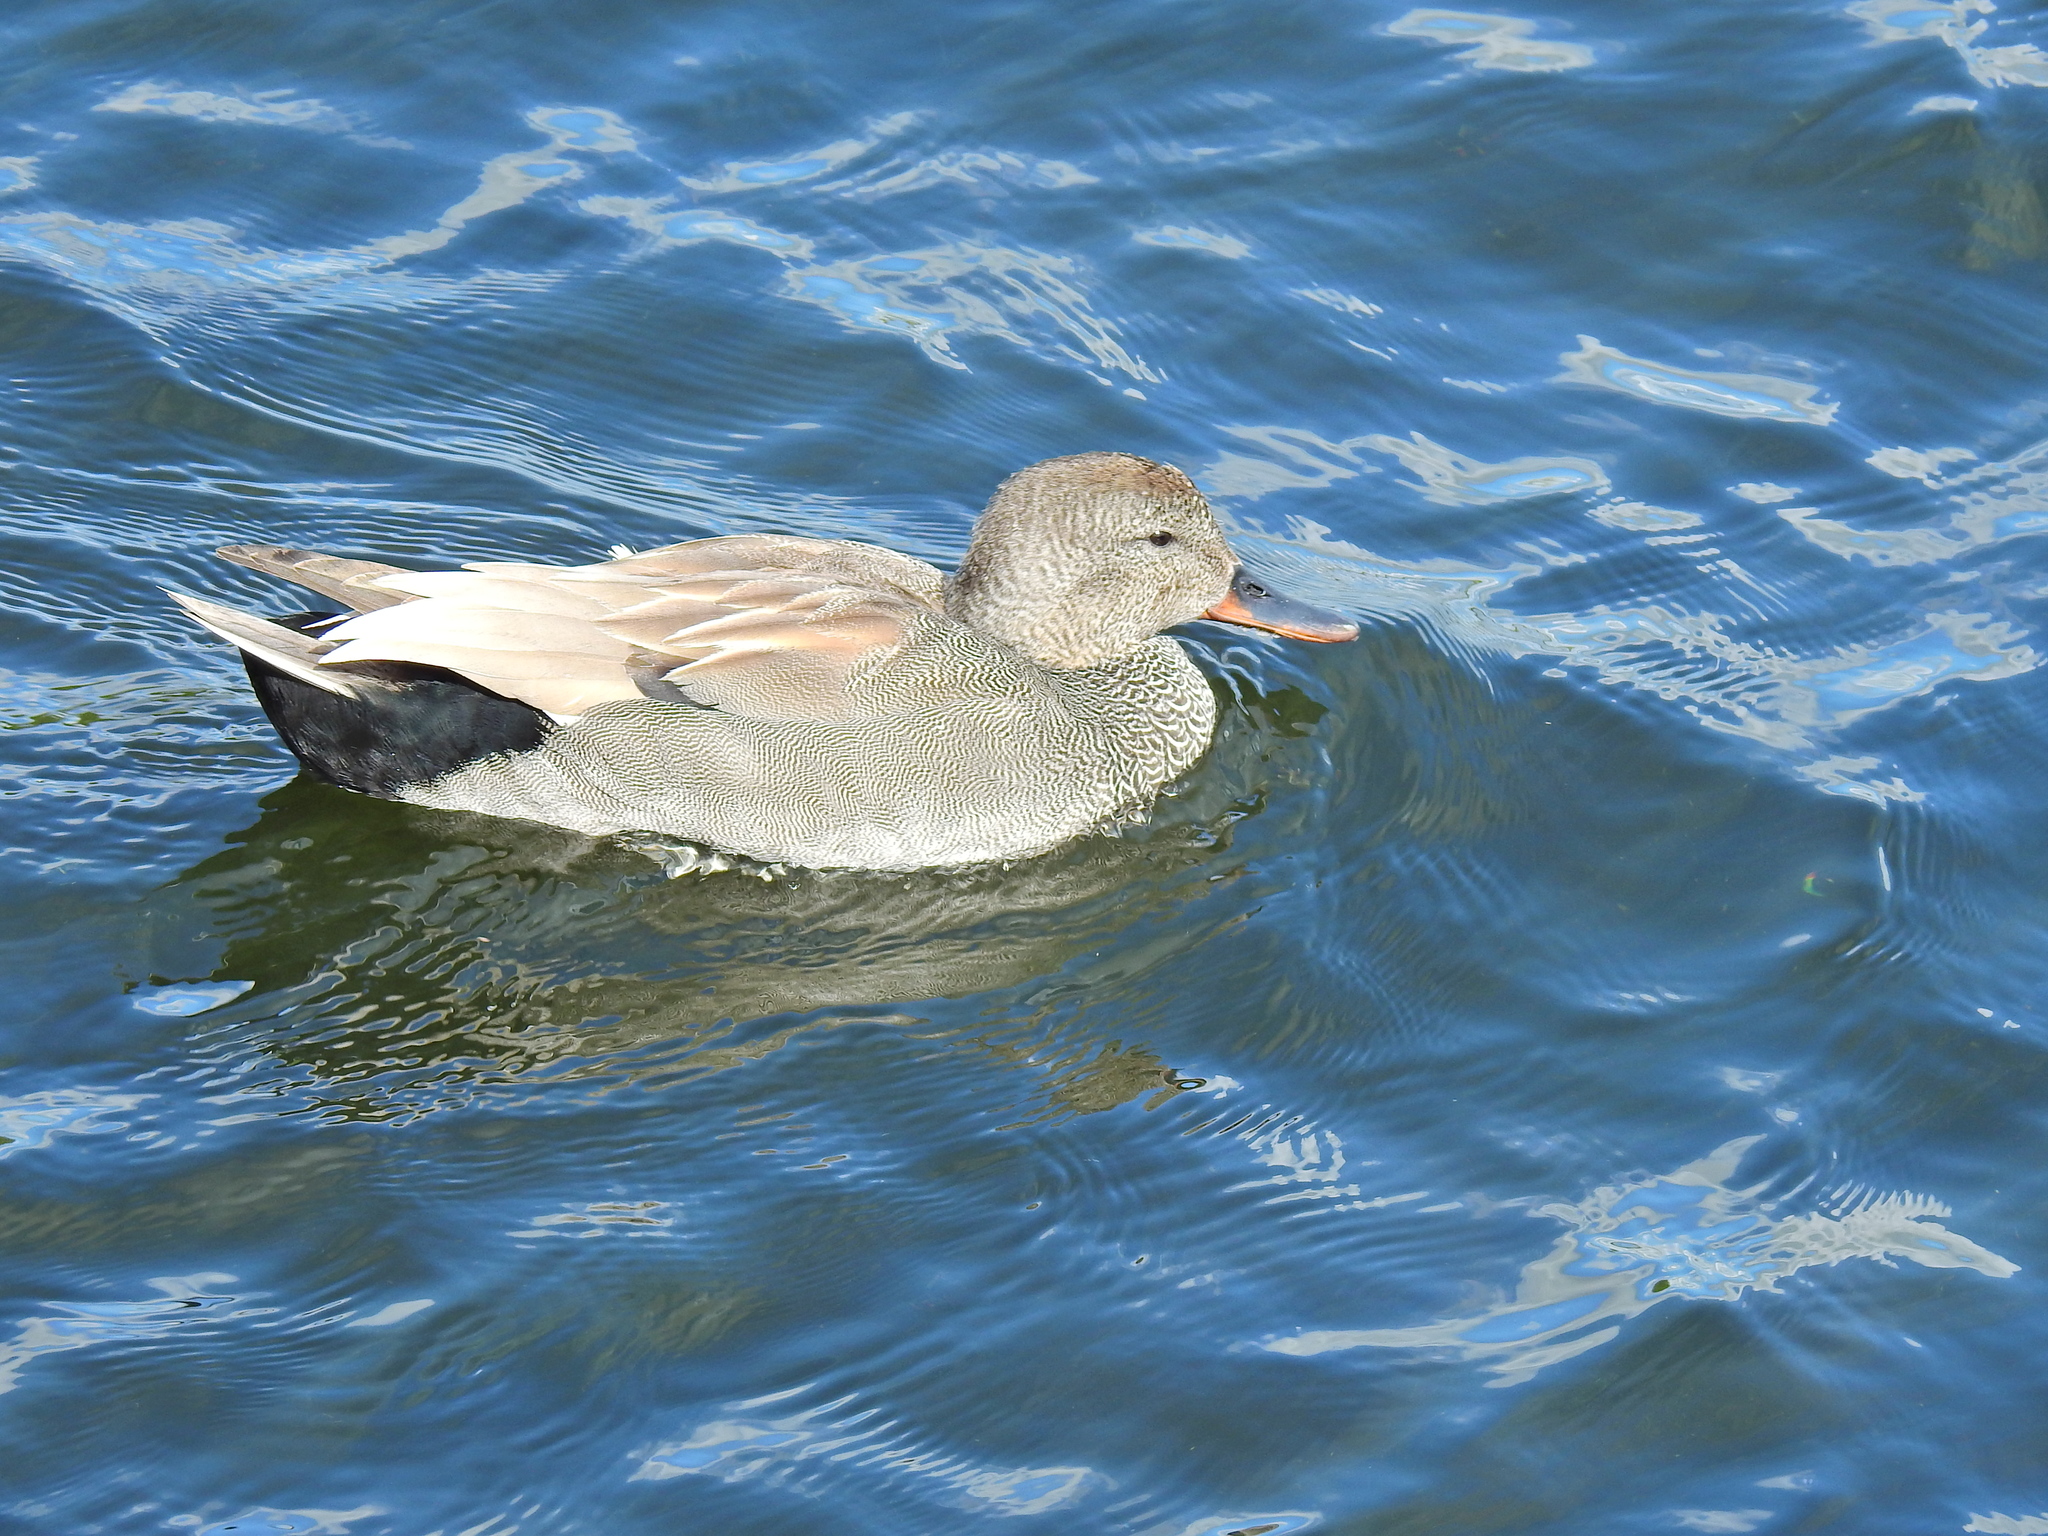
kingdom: Animalia
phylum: Chordata
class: Aves
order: Anseriformes
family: Anatidae
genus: Mareca
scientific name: Mareca strepera
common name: Gadwall
